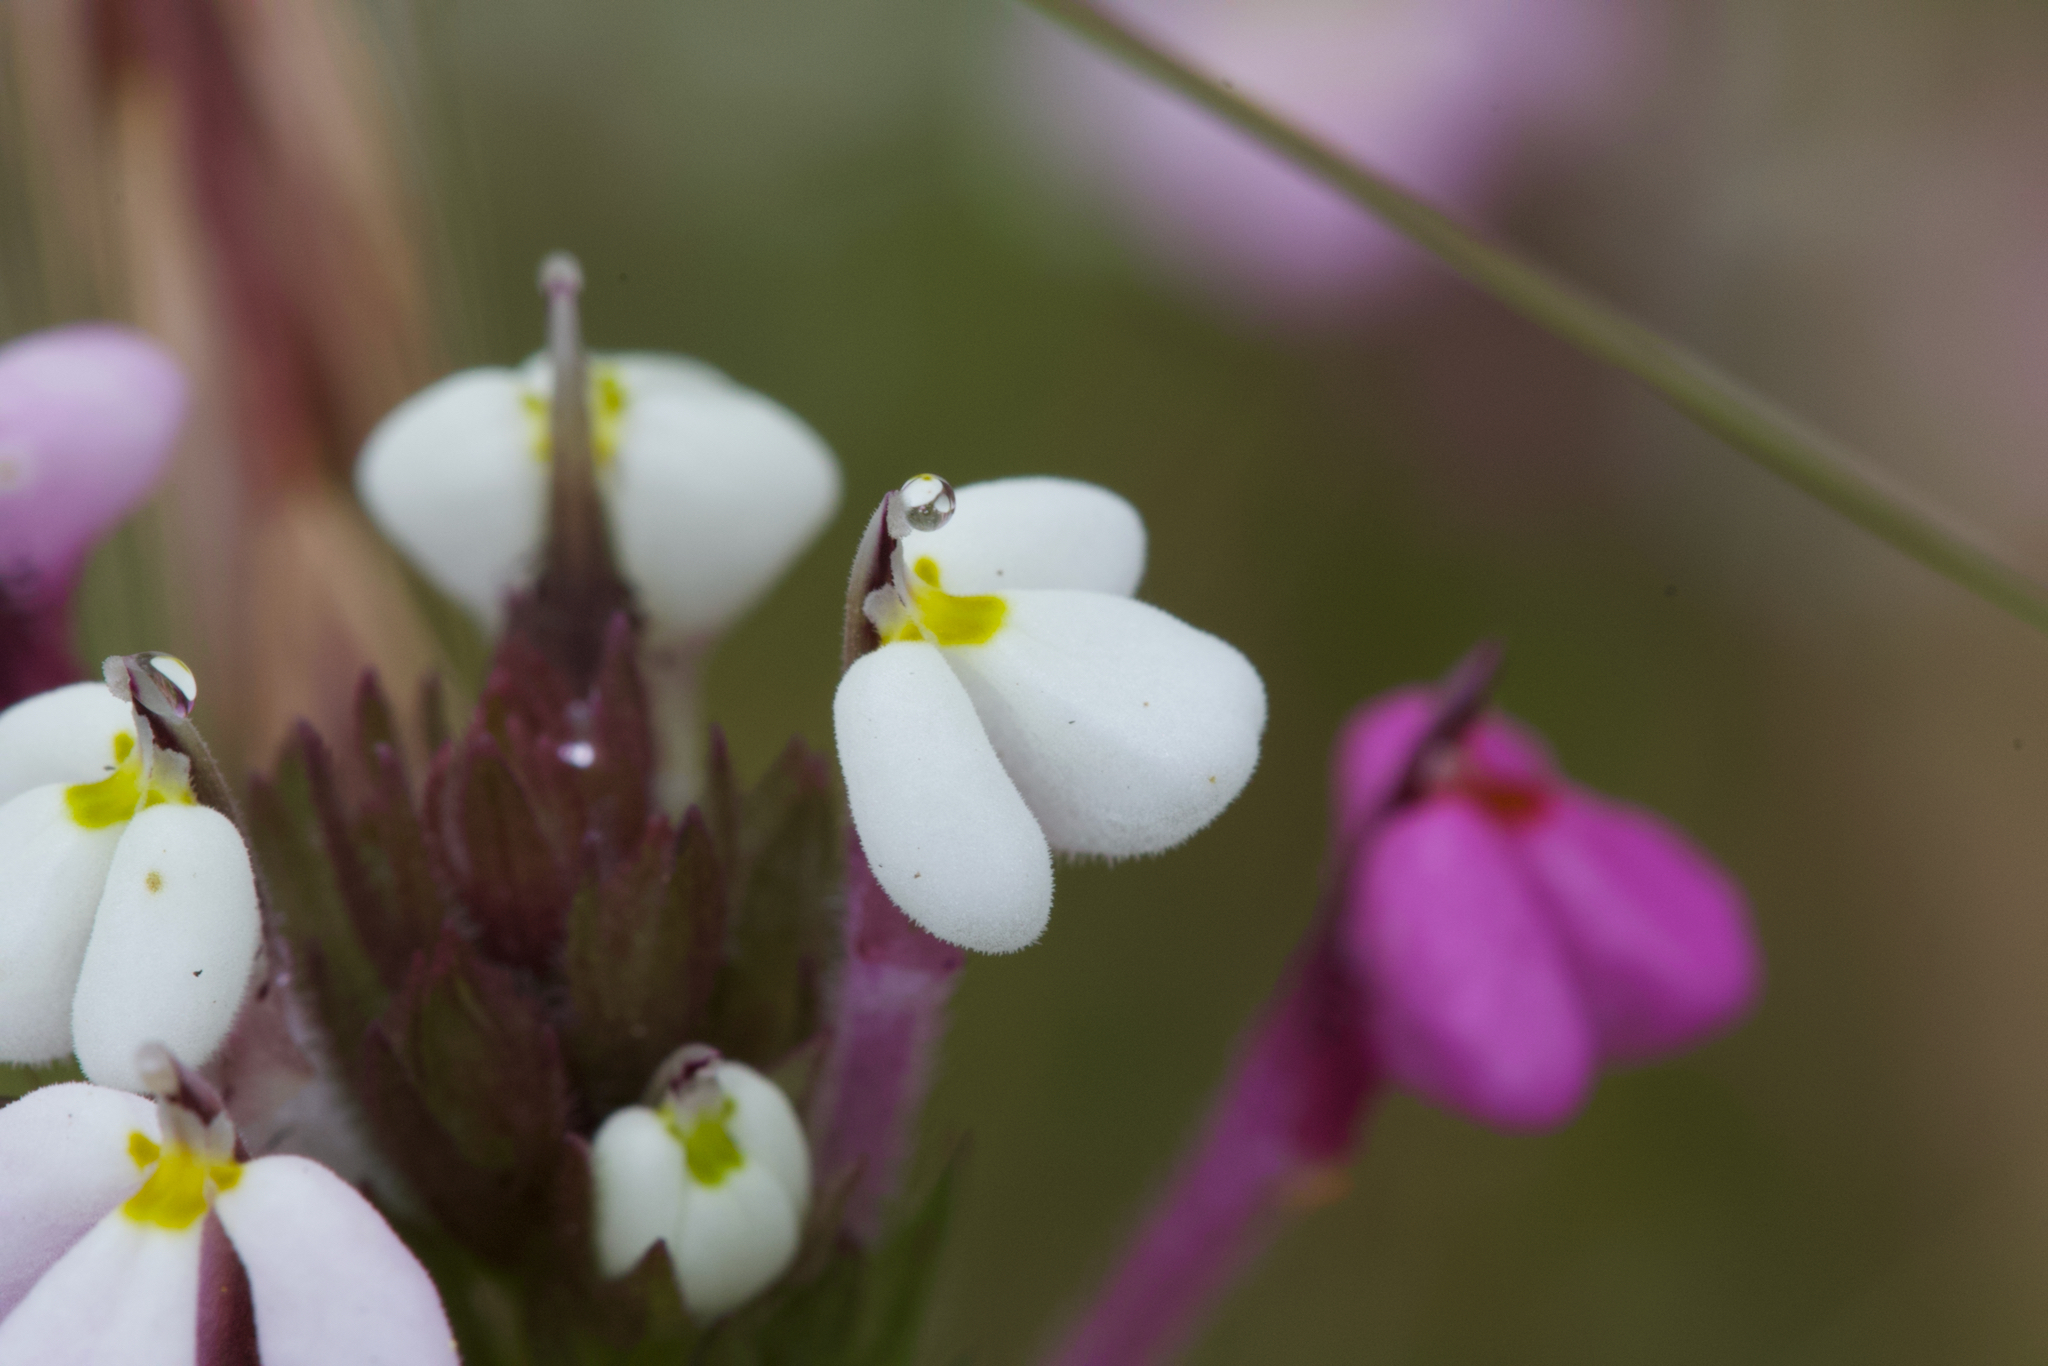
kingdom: Plantae
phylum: Tracheophyta
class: Magnoliopsida
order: Lamiales
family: Orobanchaceae
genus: Triphysaria
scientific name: Triphysaria versicolor
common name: Bearded false owl-clover
